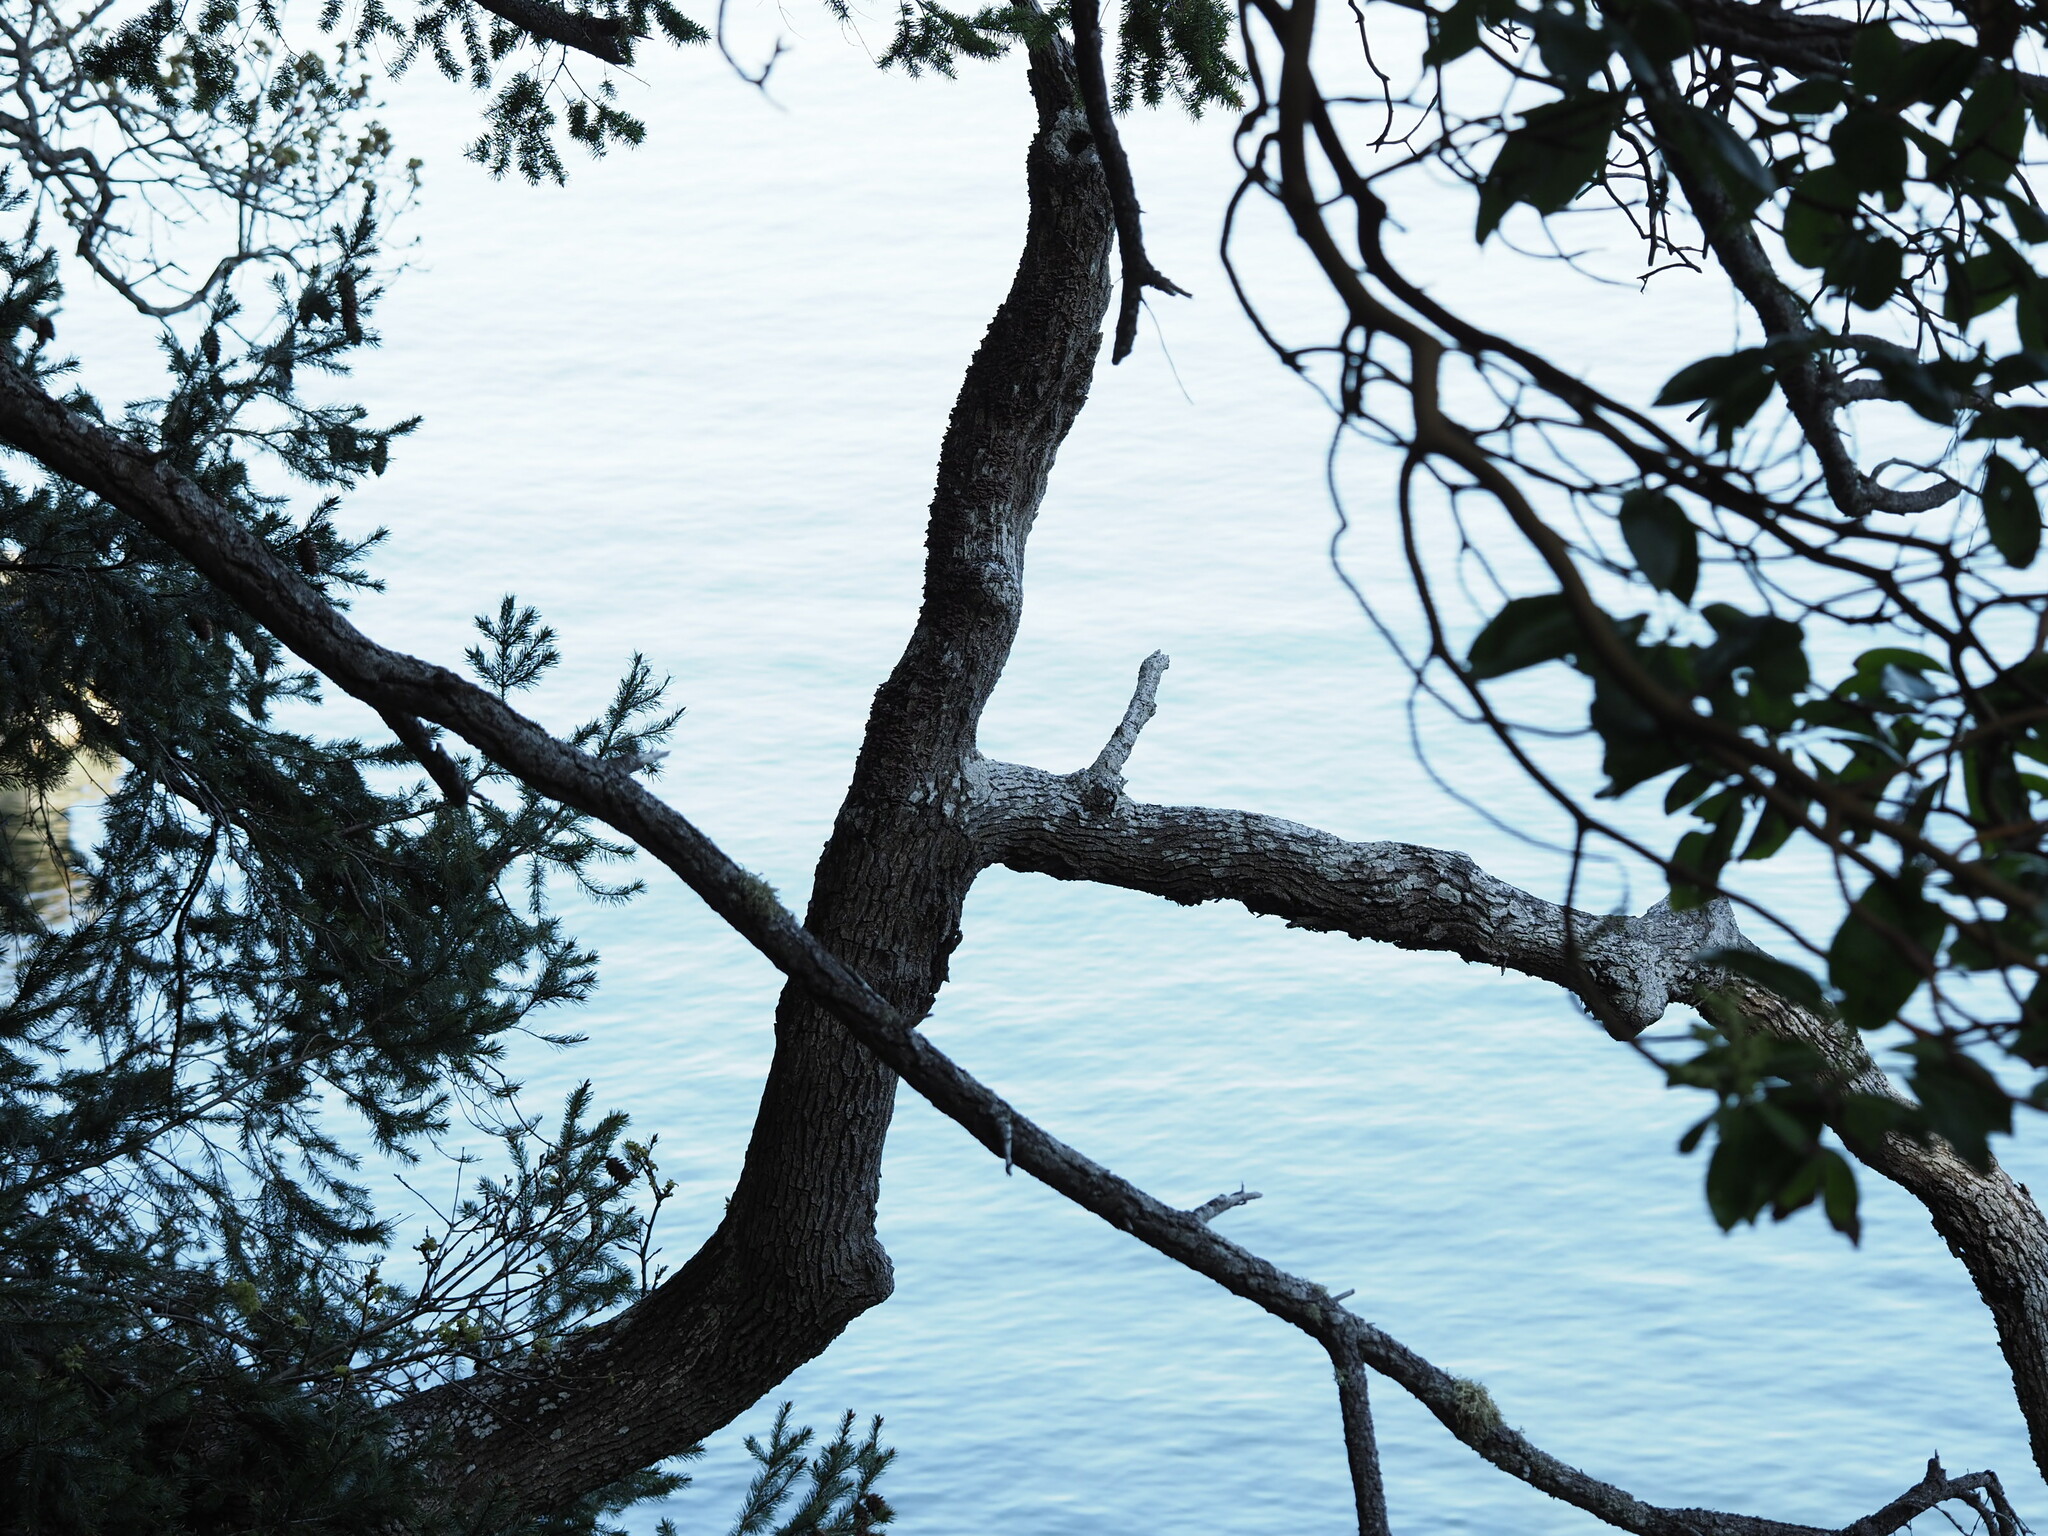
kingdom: Plantae
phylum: Tracheophyta
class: Magnoliopsida
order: Fagales
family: Fagaceae
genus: Quercus
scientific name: Quercus garryana
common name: Garry oak
